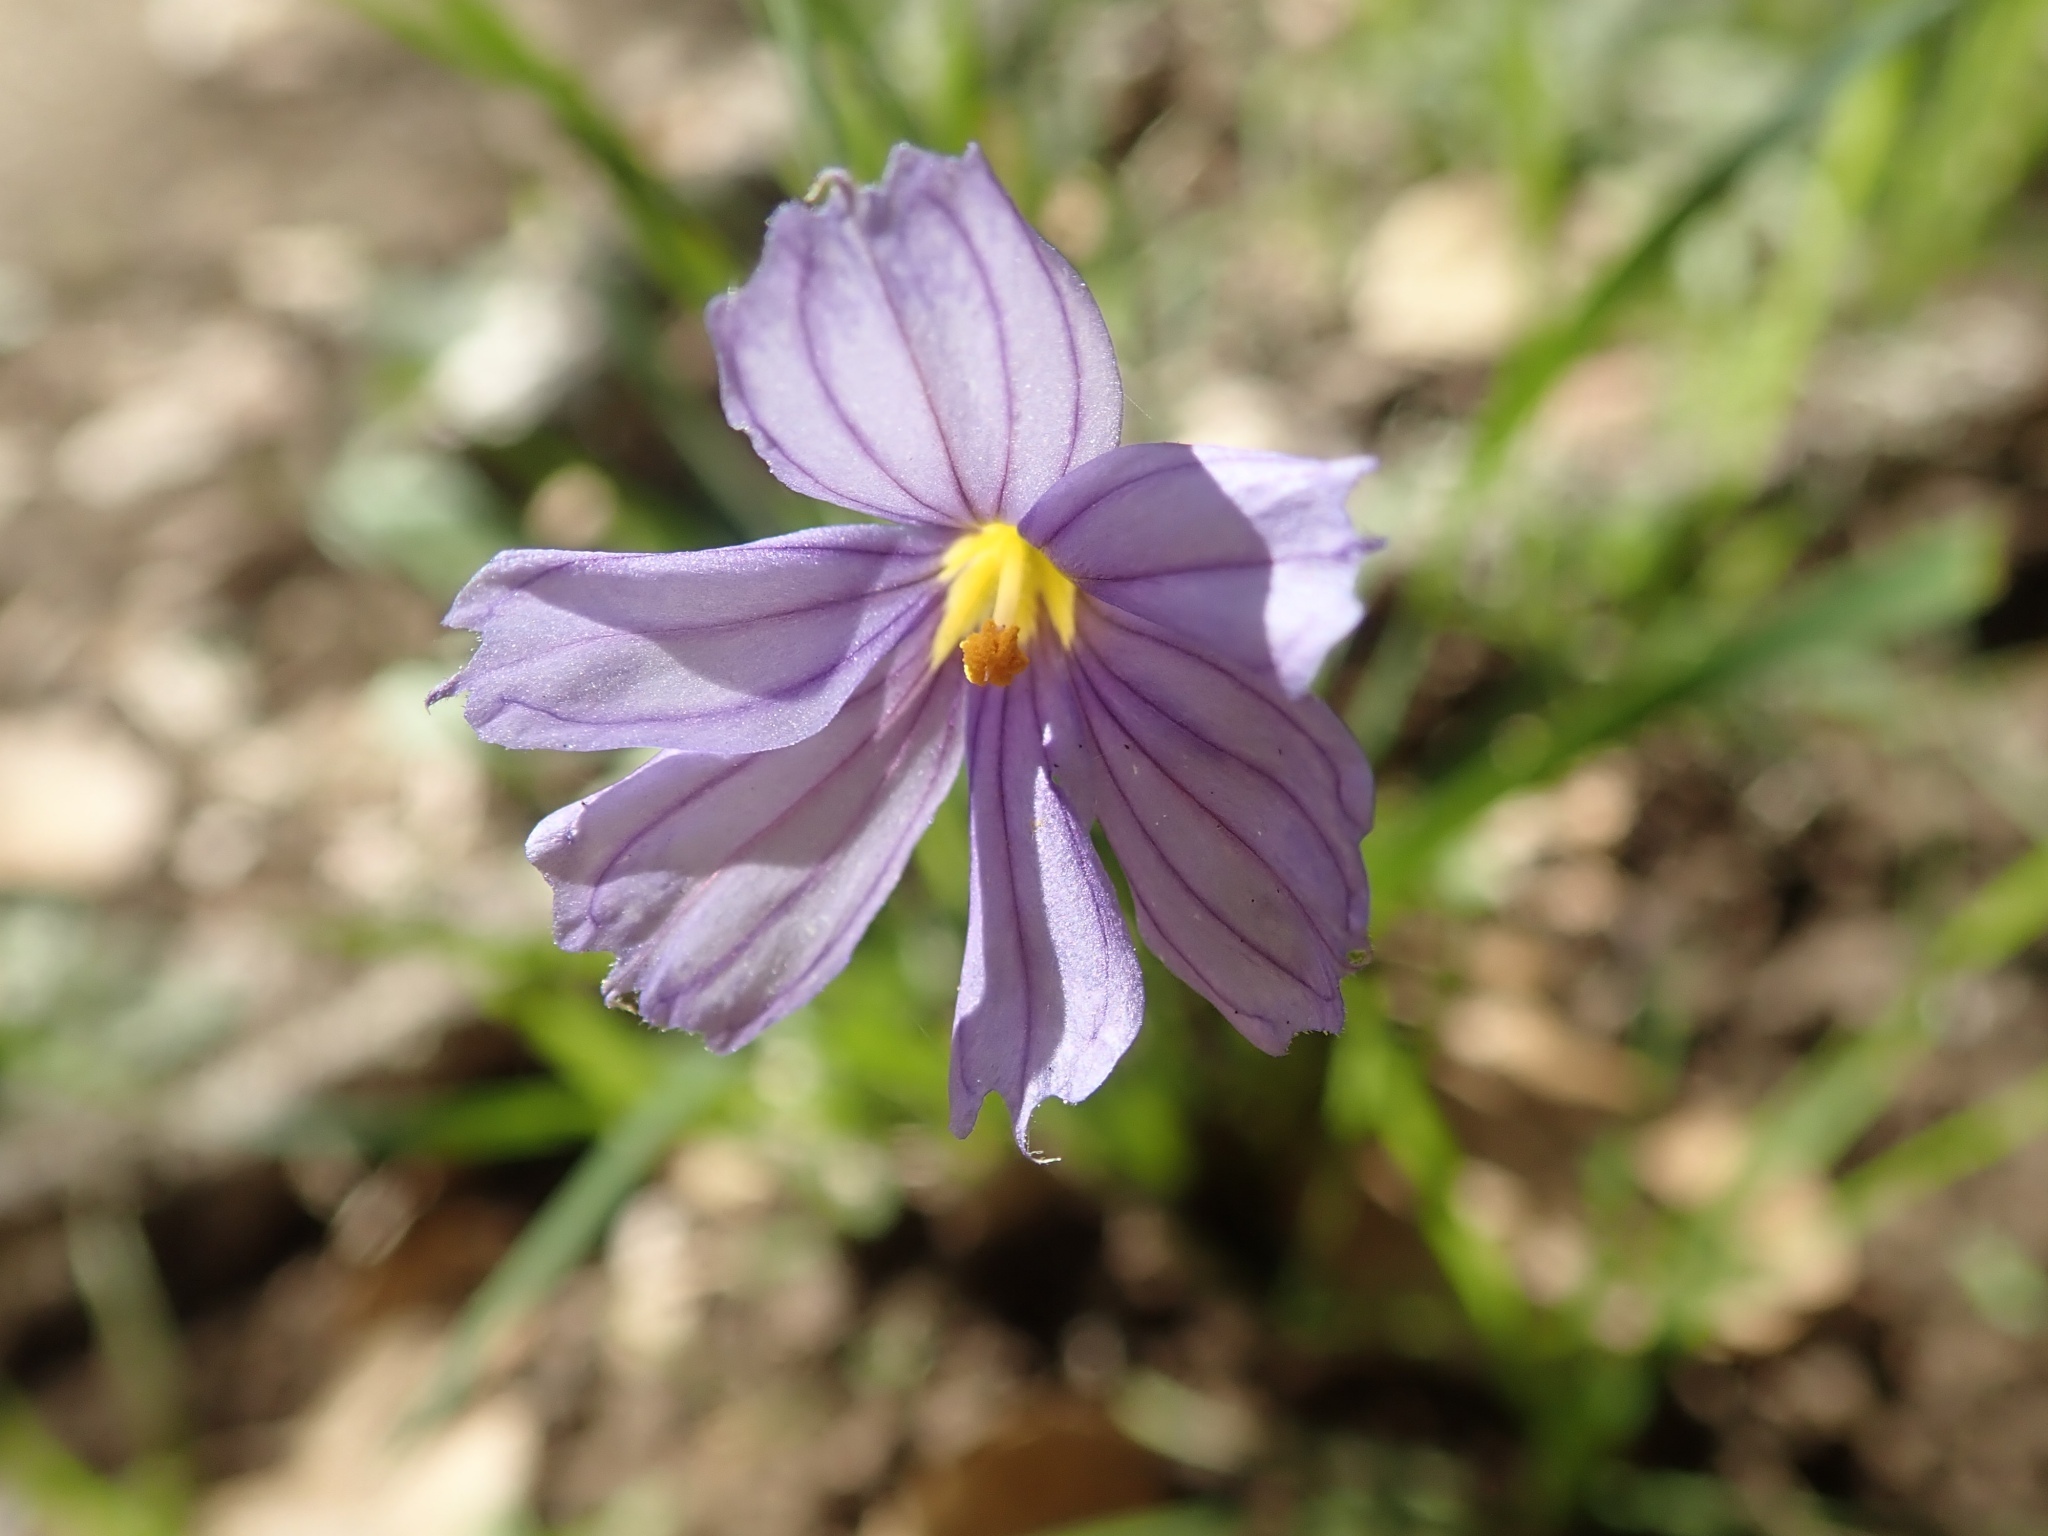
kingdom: Plantae
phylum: Tracheophyta
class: Liliopsida
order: Asparagales
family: Iridaceae
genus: Sisyrinchium
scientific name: Sisyrinchium bellum
